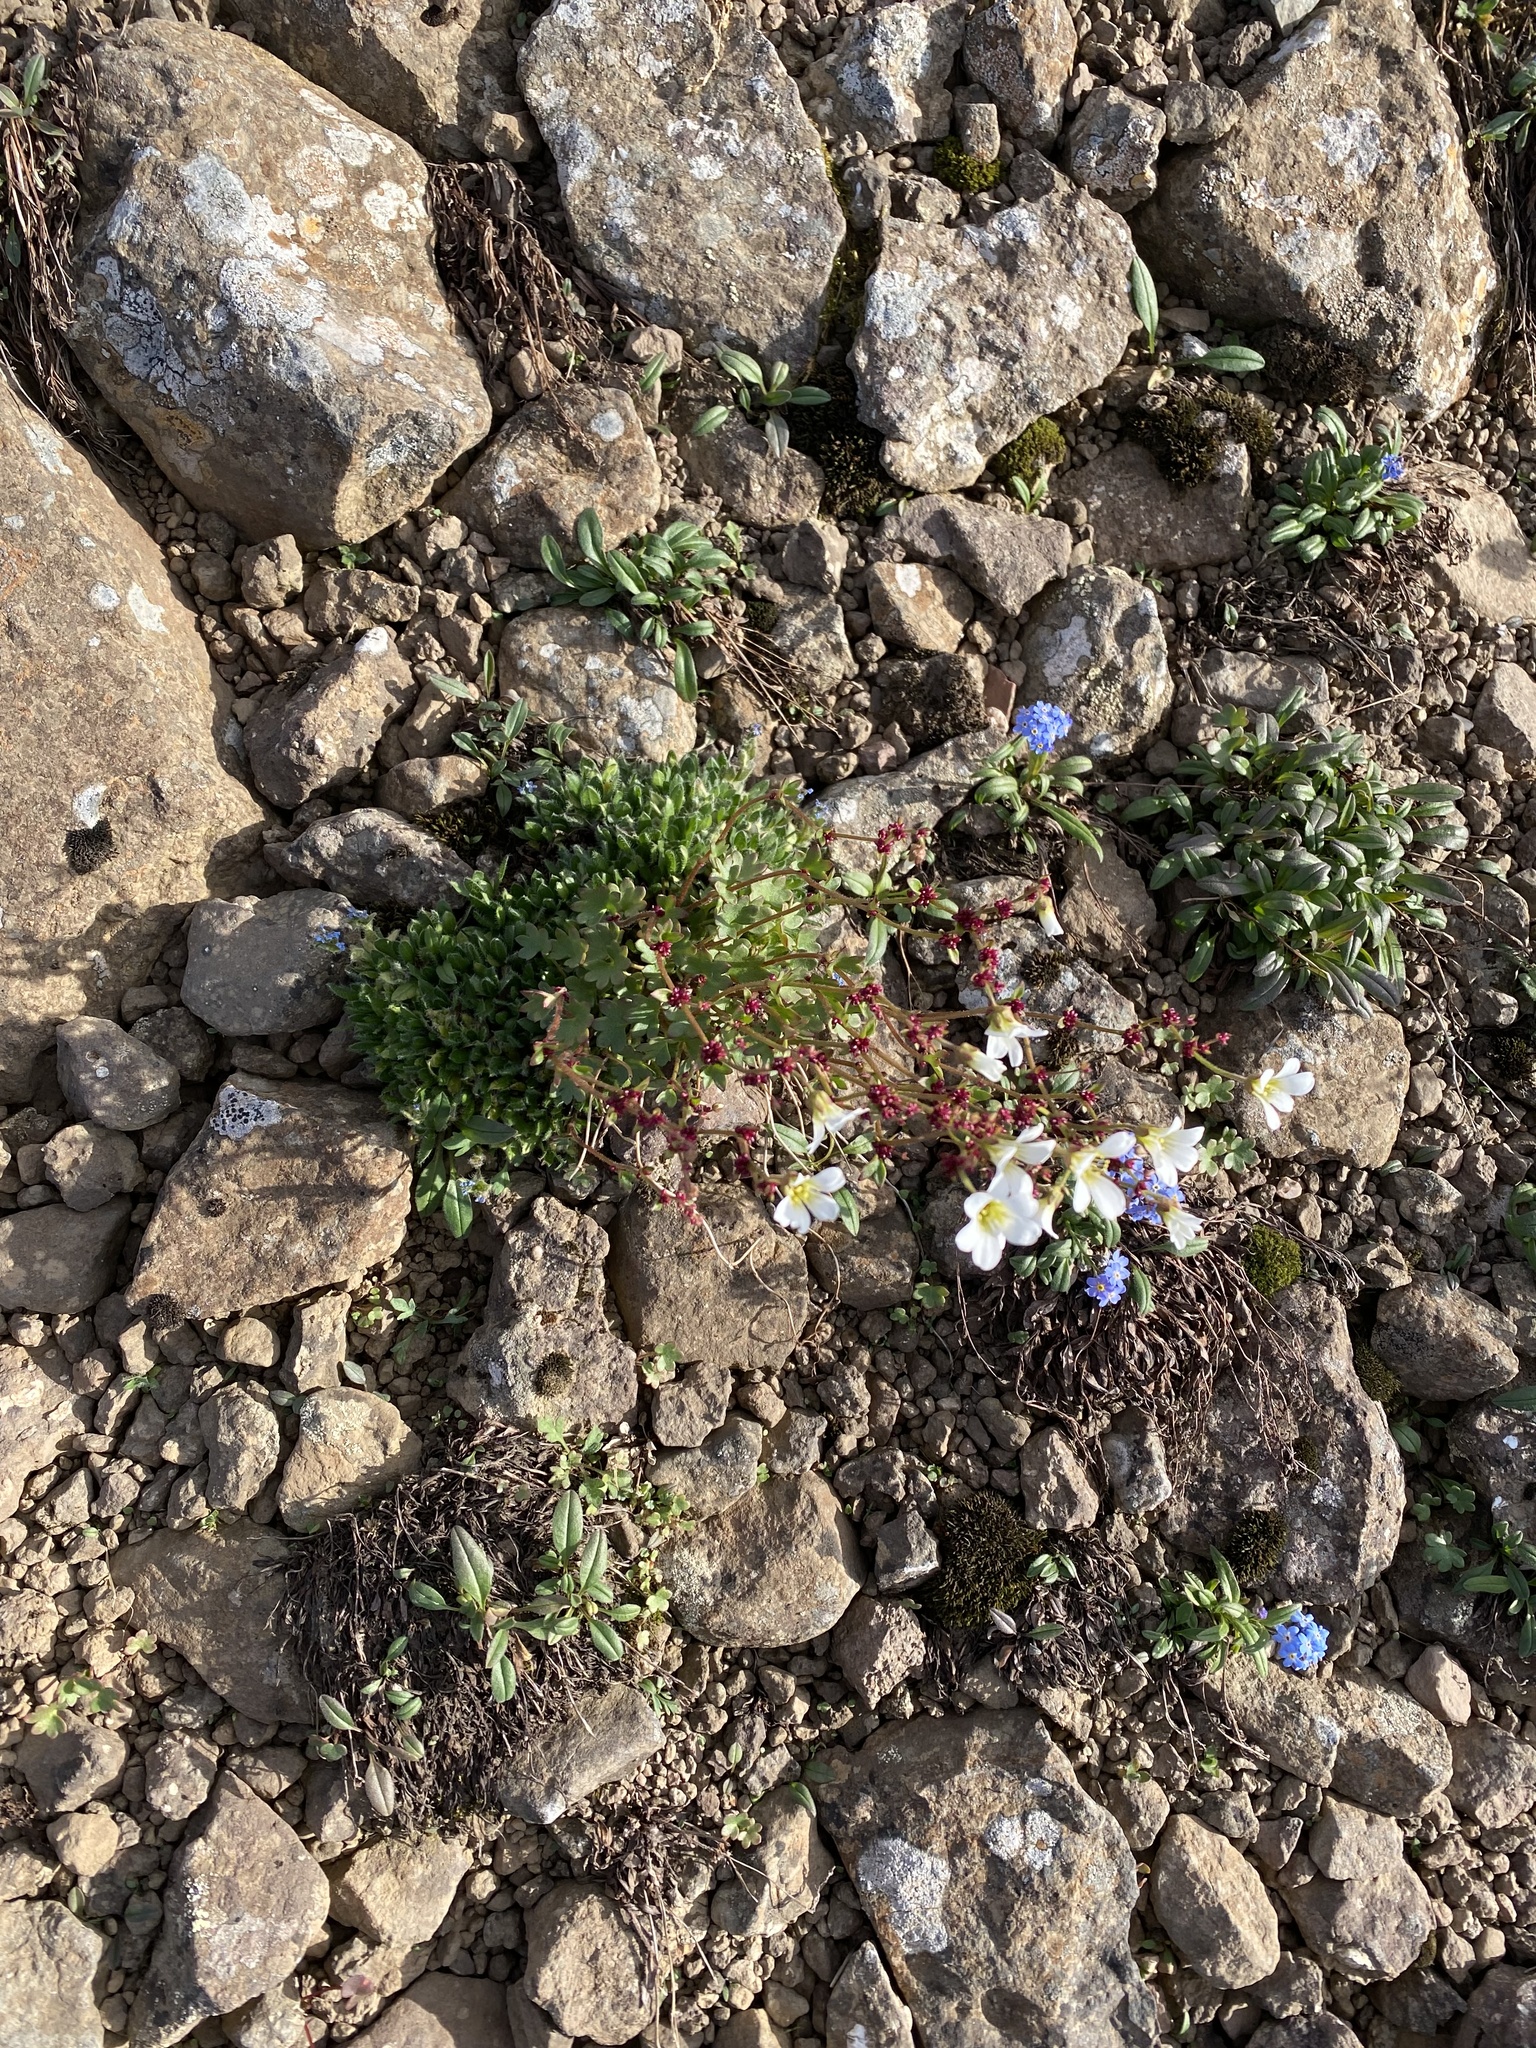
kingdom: Plantae
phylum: Tracheophyta
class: Magnoliopsida
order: Saxifragales
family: Saxifragaceae
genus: Saxifraga
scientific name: Saxifraga cernua
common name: Drooping saxifrage
